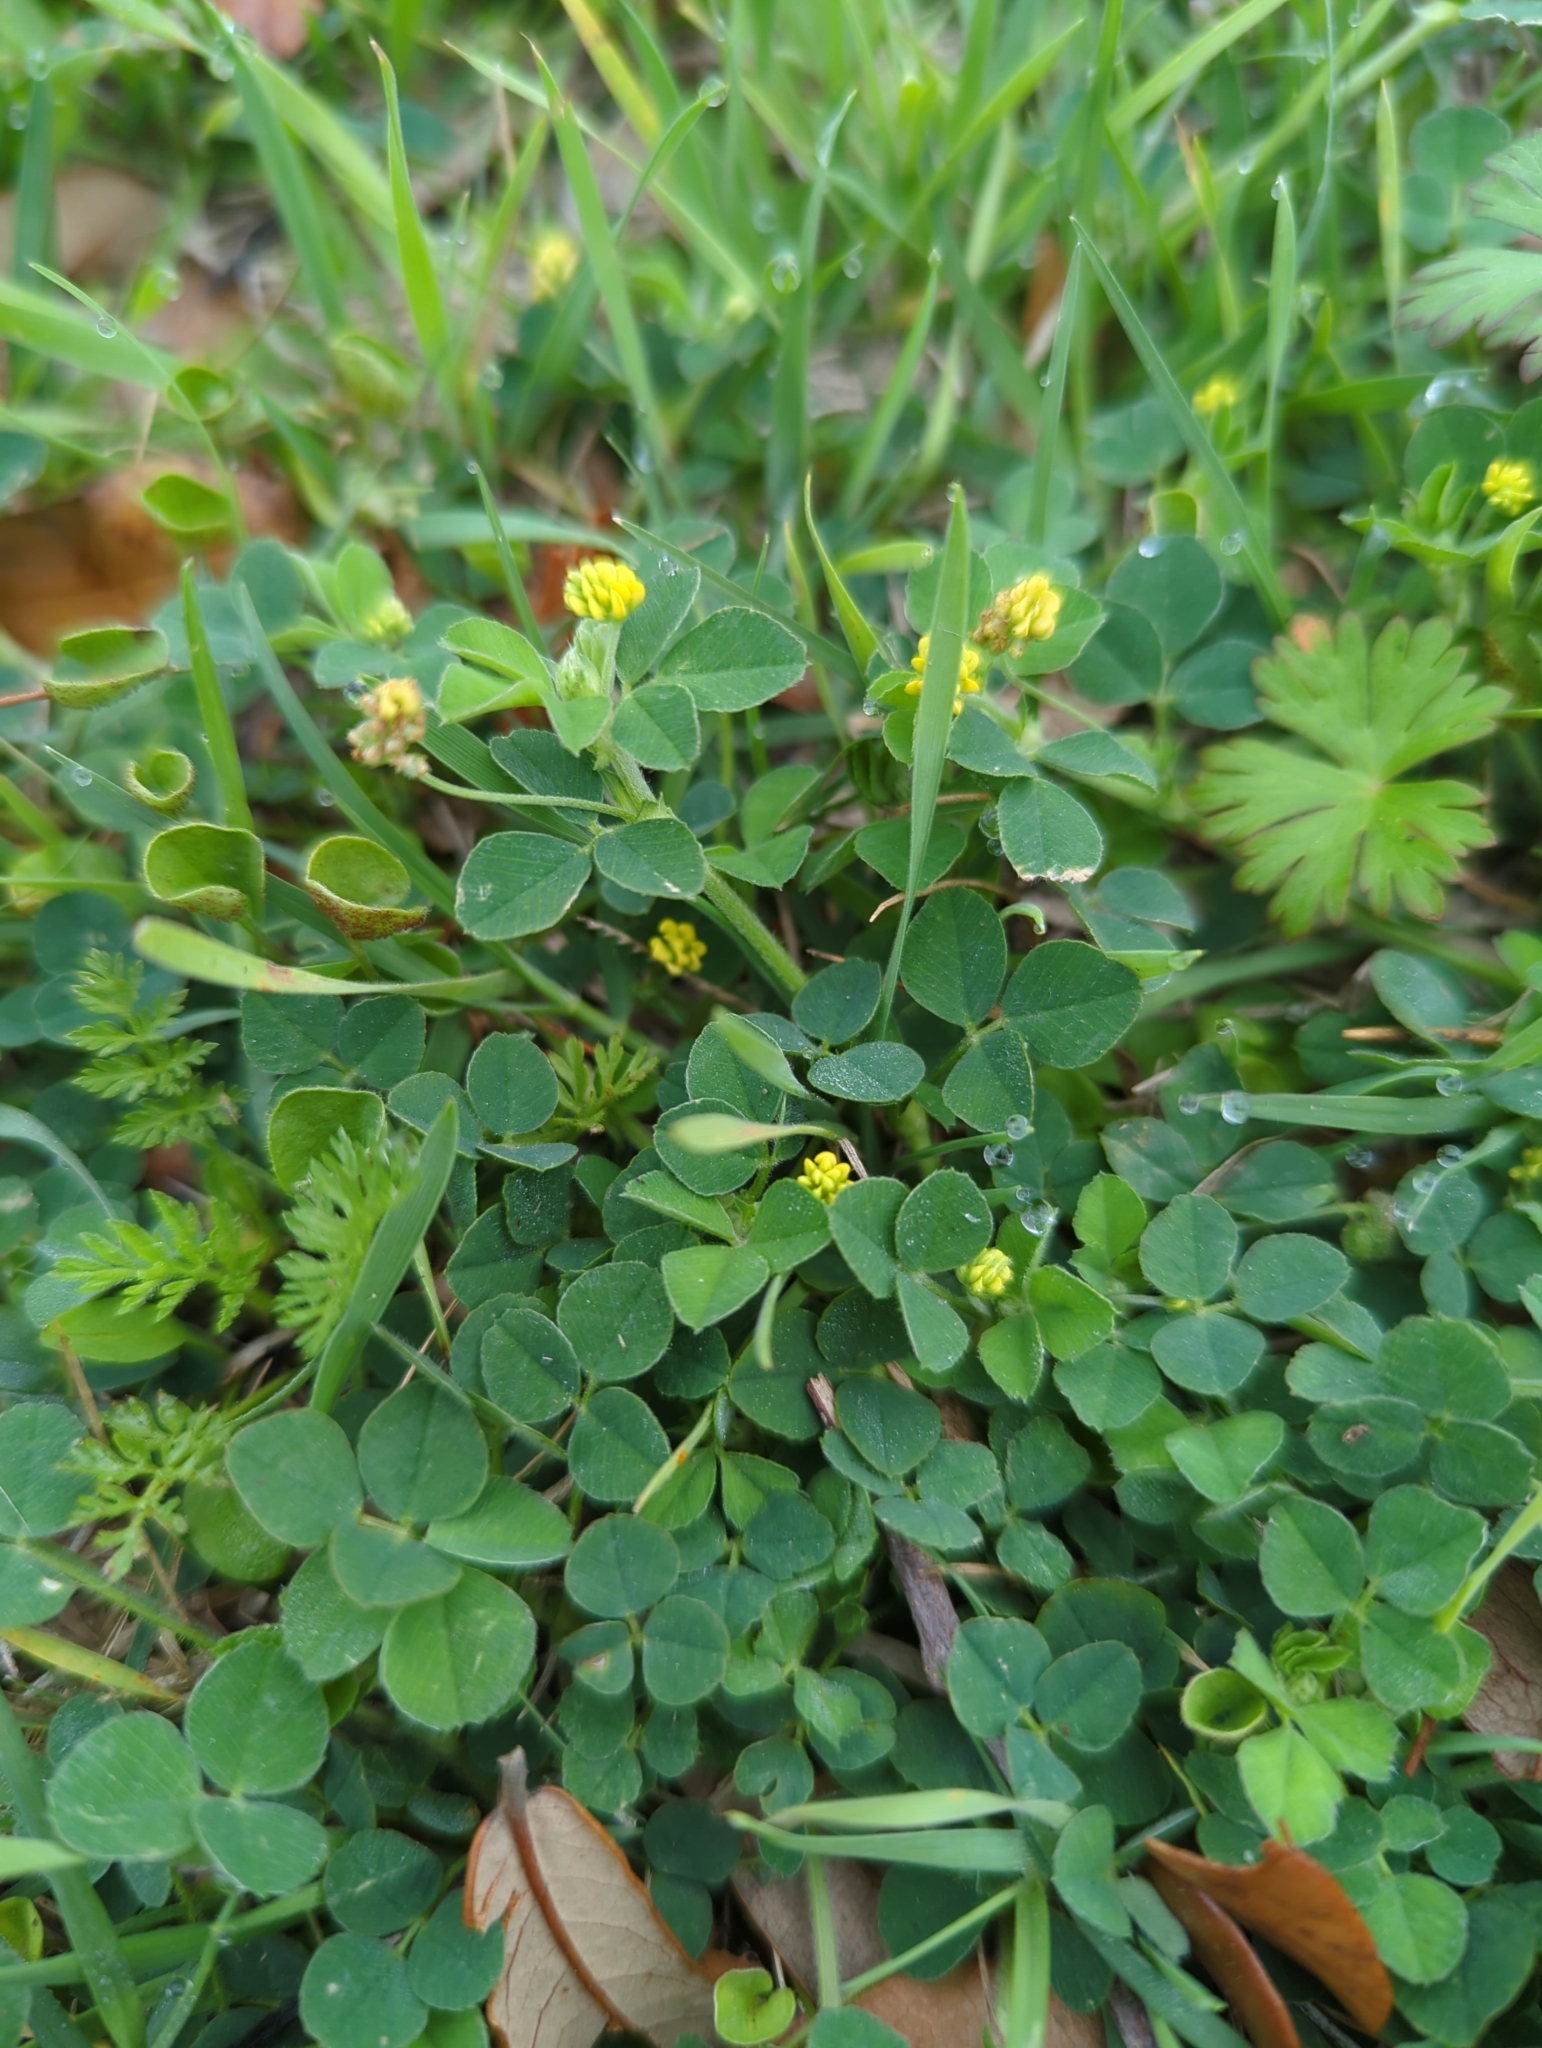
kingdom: Plantae
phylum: Tracheophyta
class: Magnoliopsida
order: Fabales
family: Fabaceae
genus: Medicago
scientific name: Medicago lupulina
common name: Black medick
